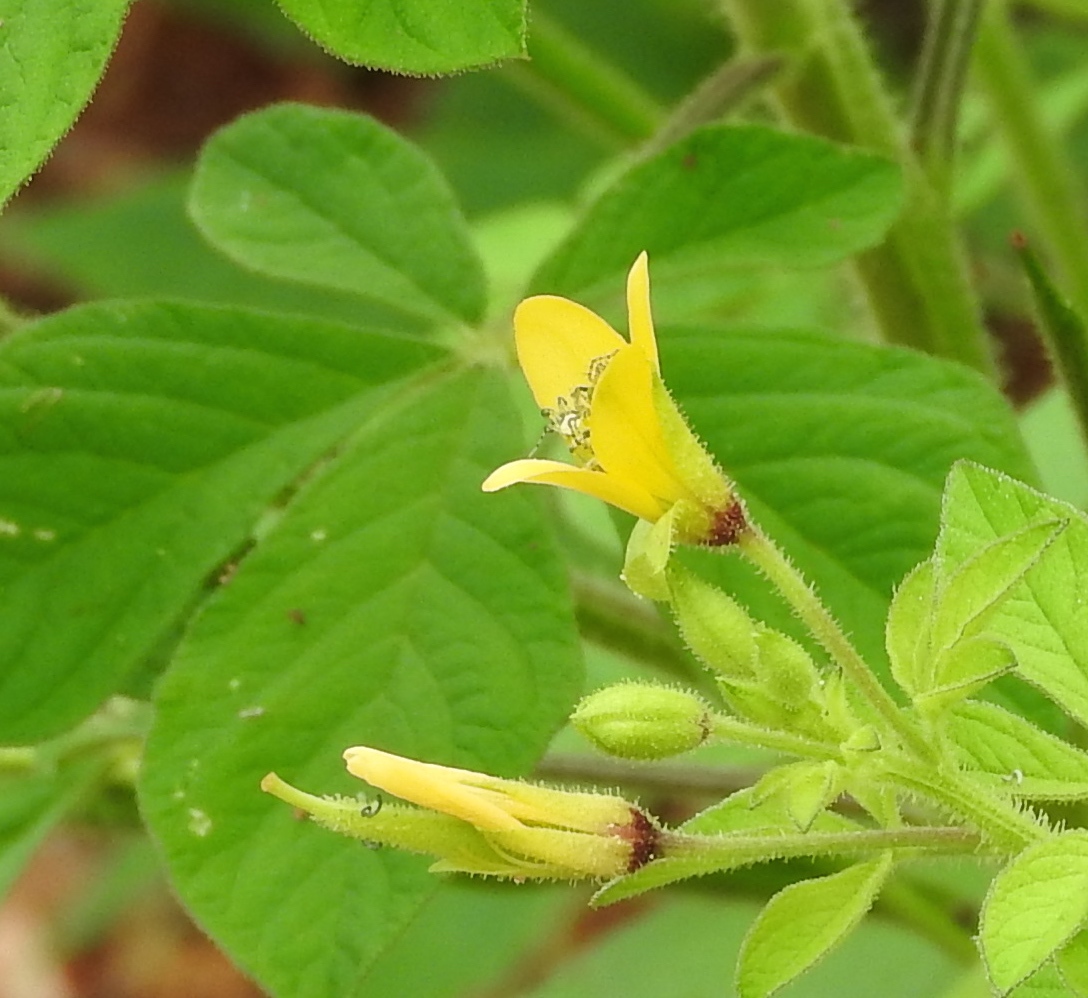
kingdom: Plantae
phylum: Tracheophyta
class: Magnoliopsida
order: Brassicales
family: Cleomaceae
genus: Arivela
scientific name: Arivela viscosa
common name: Asian spiderflower
